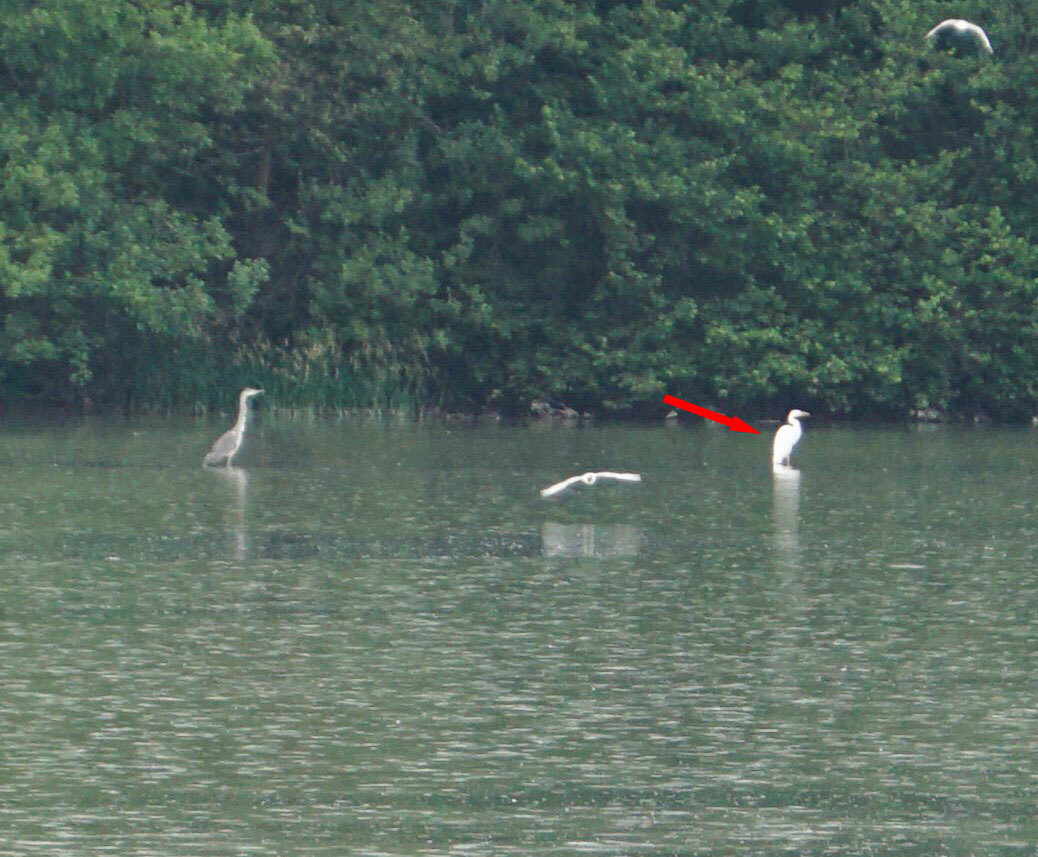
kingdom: Animalia
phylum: Chordata
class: Aves
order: Pelecaniformes
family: Ardeidae
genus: Ardea
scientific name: Ardea alba
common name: Great egret
